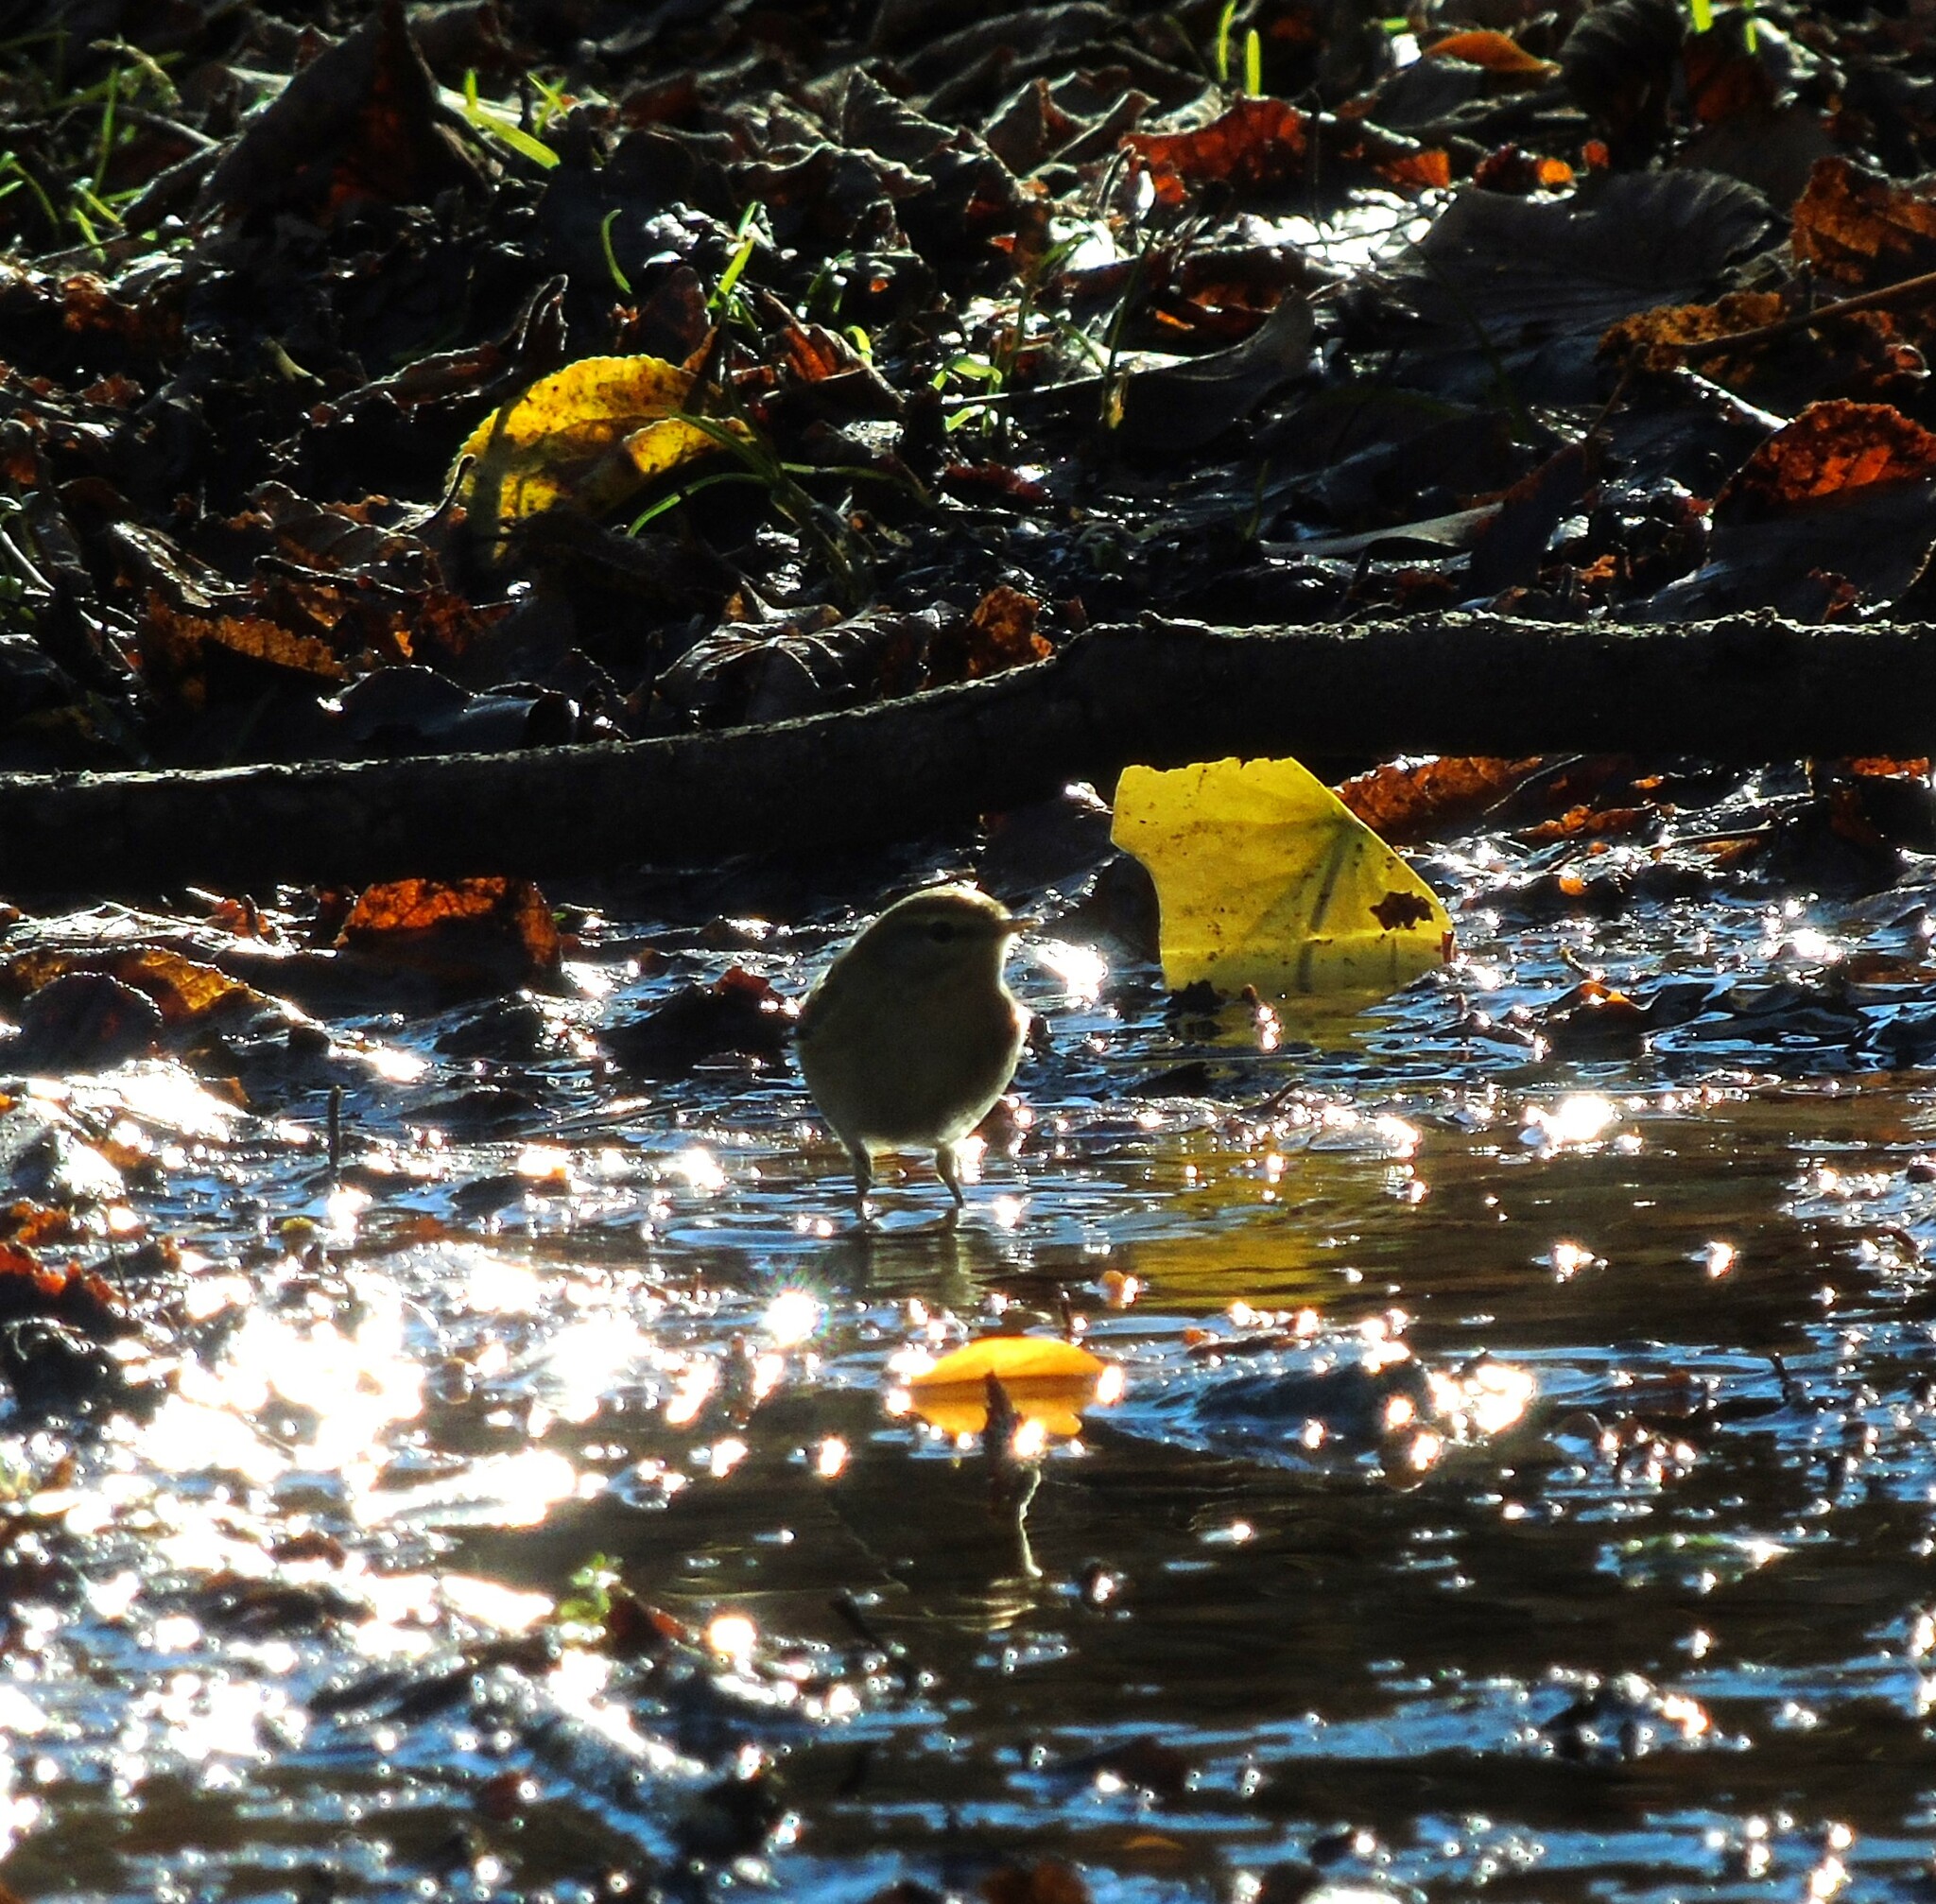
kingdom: Animalia
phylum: Chordata
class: Aves
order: Passeriformes
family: Phylloscopidae
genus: Phylloscopus
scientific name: Phylloscopus collybita
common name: Common chiffchaff
